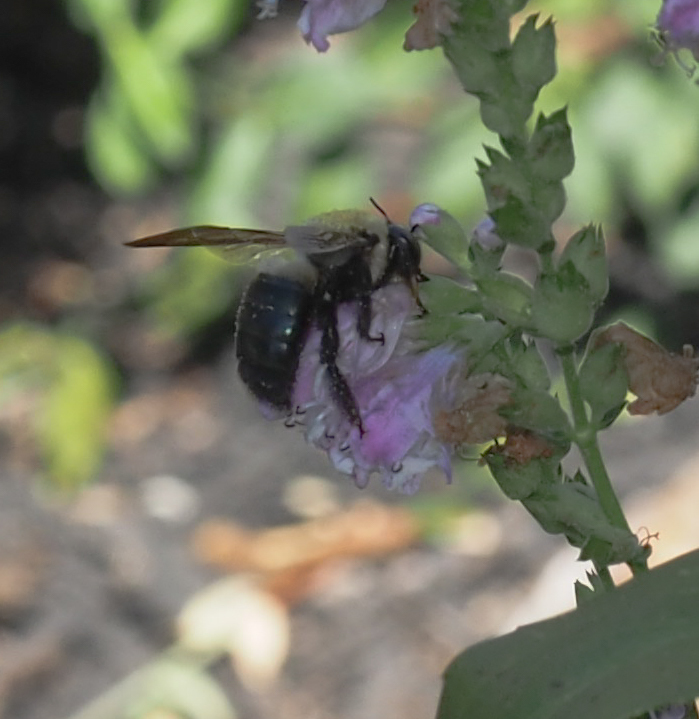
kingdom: Animalia
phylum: Arthropoda
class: Insecta
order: Hymenoptera
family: Apidae
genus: Xylocopa
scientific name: Xylocopa virginica
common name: Carpenter bee
